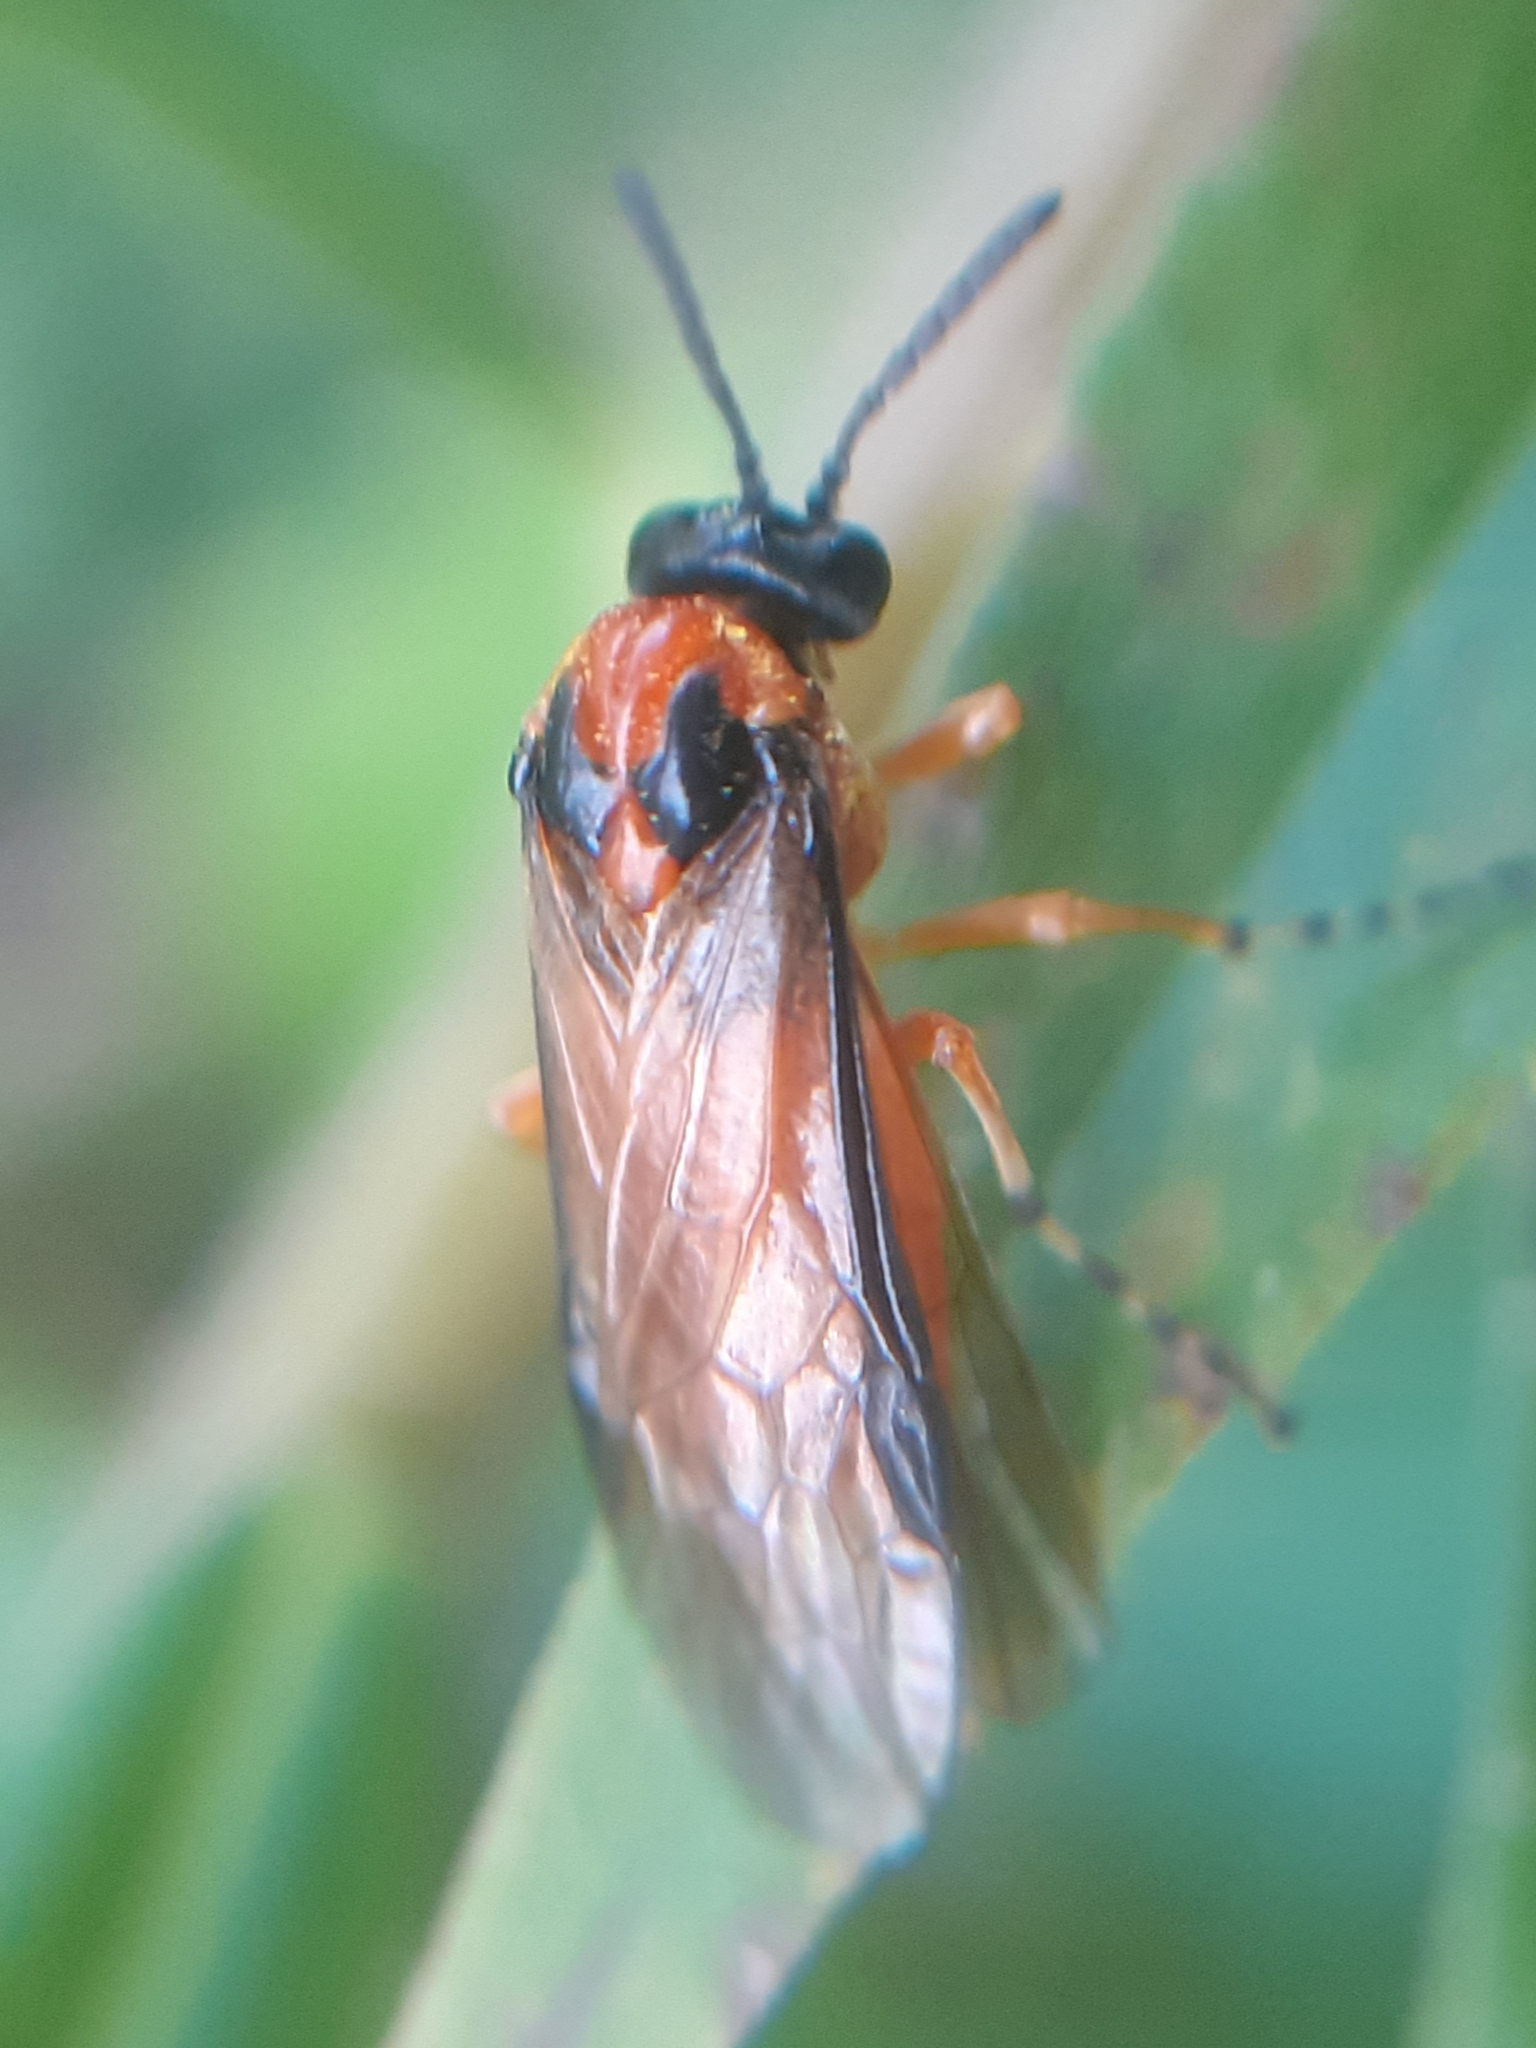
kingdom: Animalia
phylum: Arthropoda
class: Insecta
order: Hymenoptera
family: Tenthredinidae
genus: Athalia
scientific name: Athalia rosae
